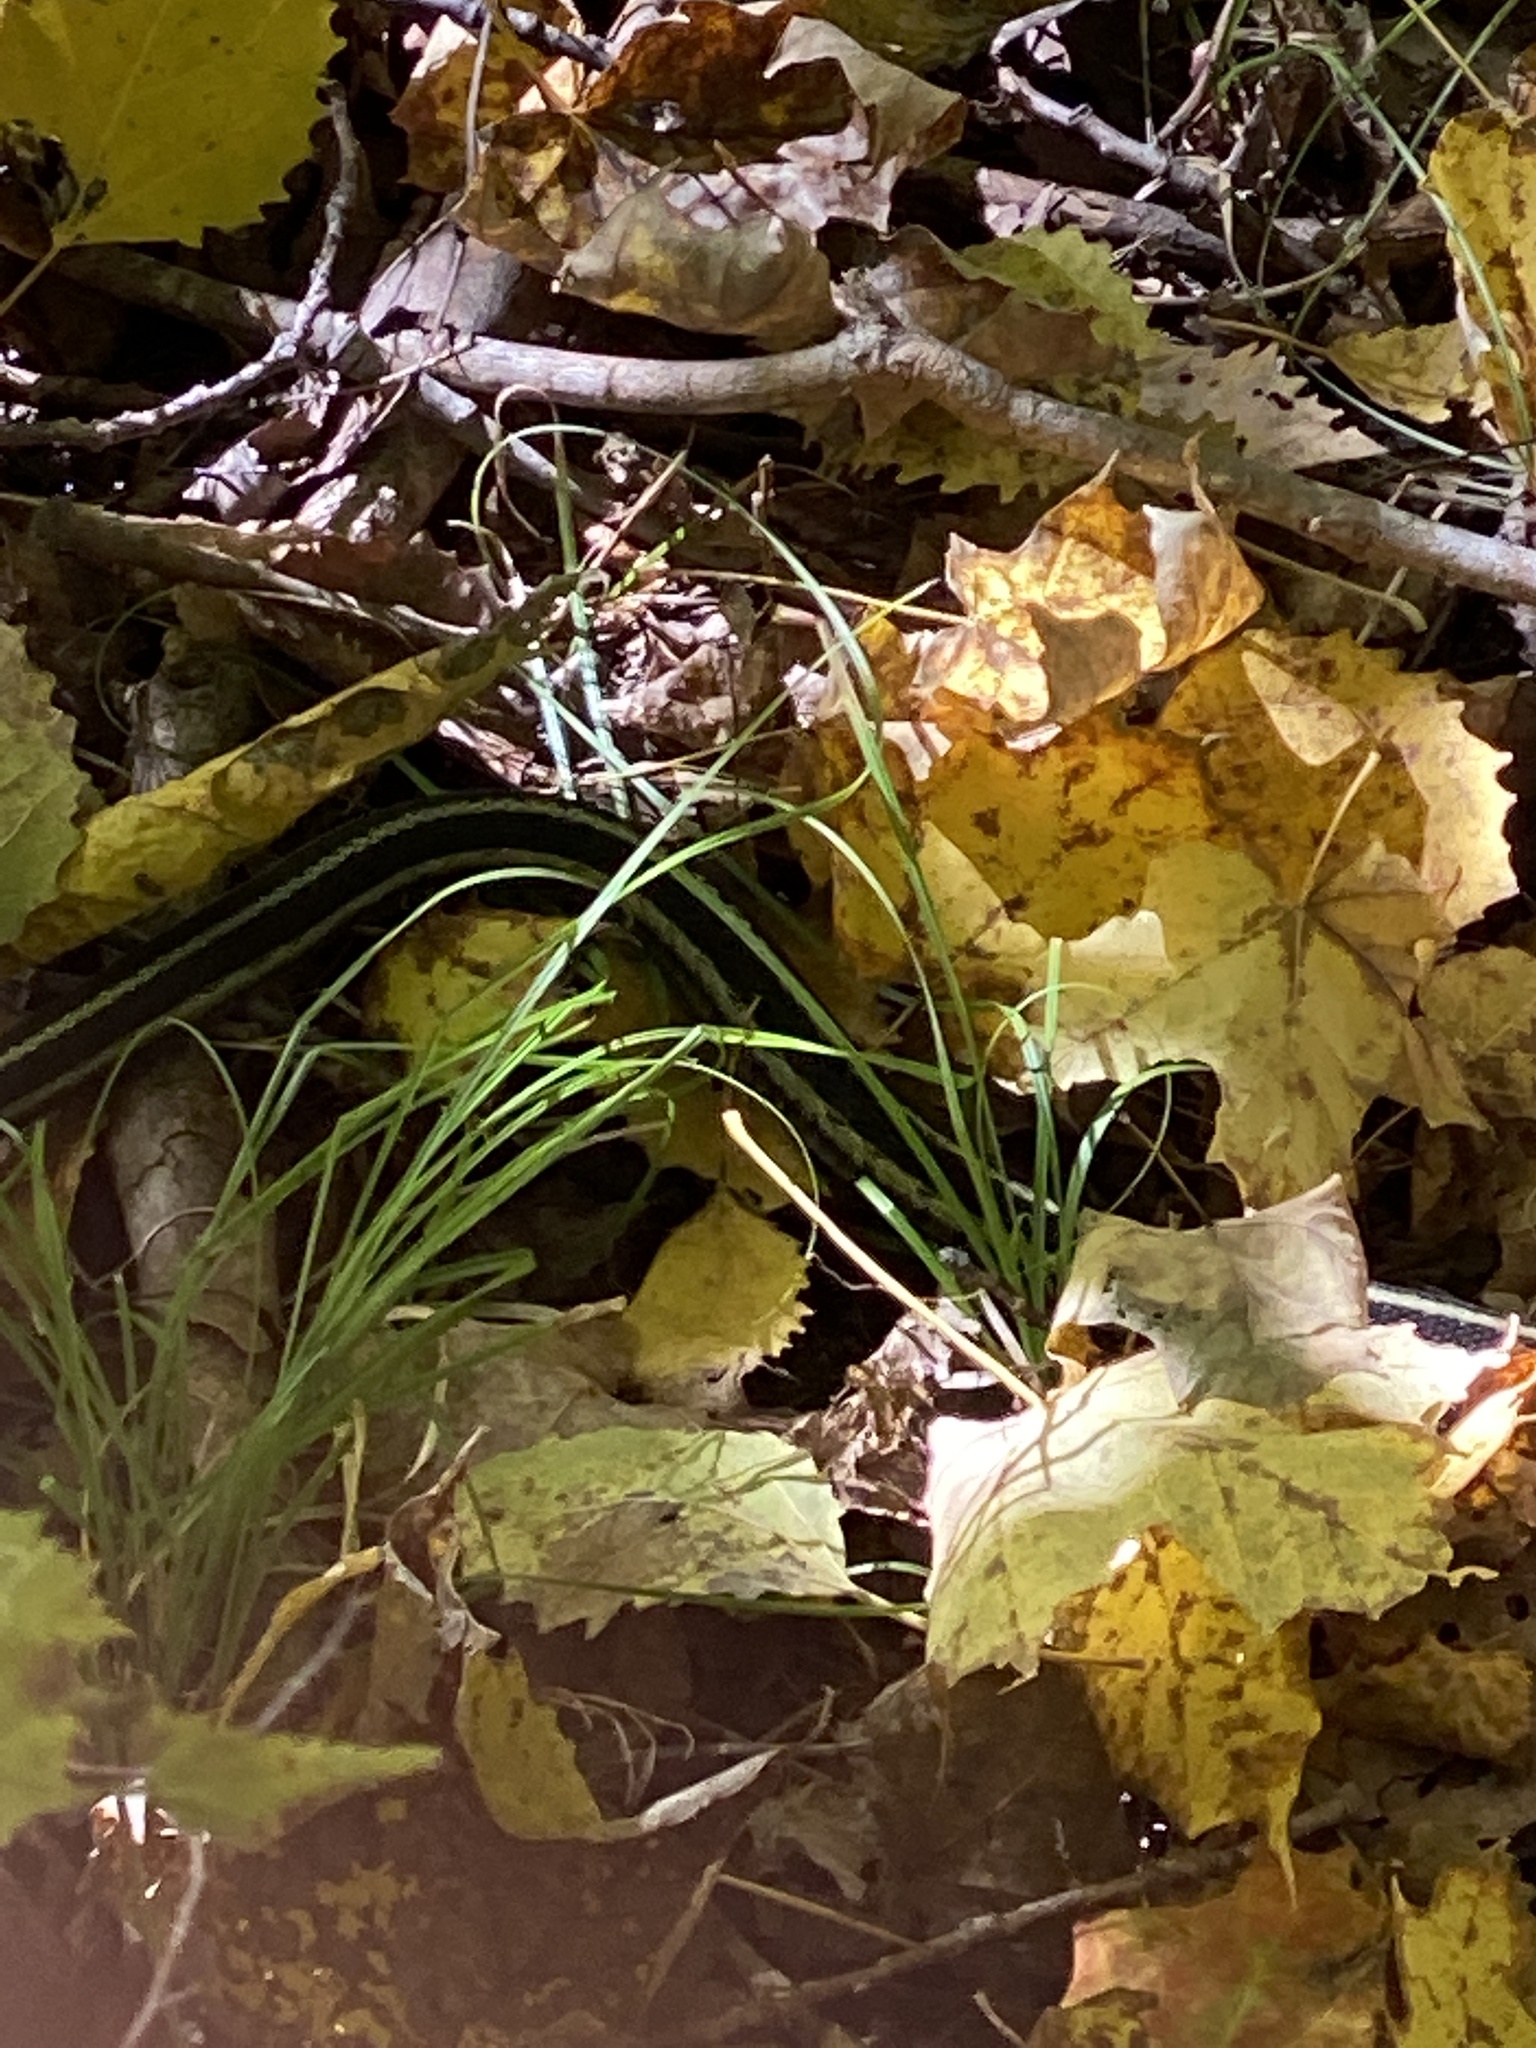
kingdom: Animalia
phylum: Chordata
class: Squamata
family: Colubridae
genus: Thamnophis
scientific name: Thamnophis sirtalis
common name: Common garter snake
